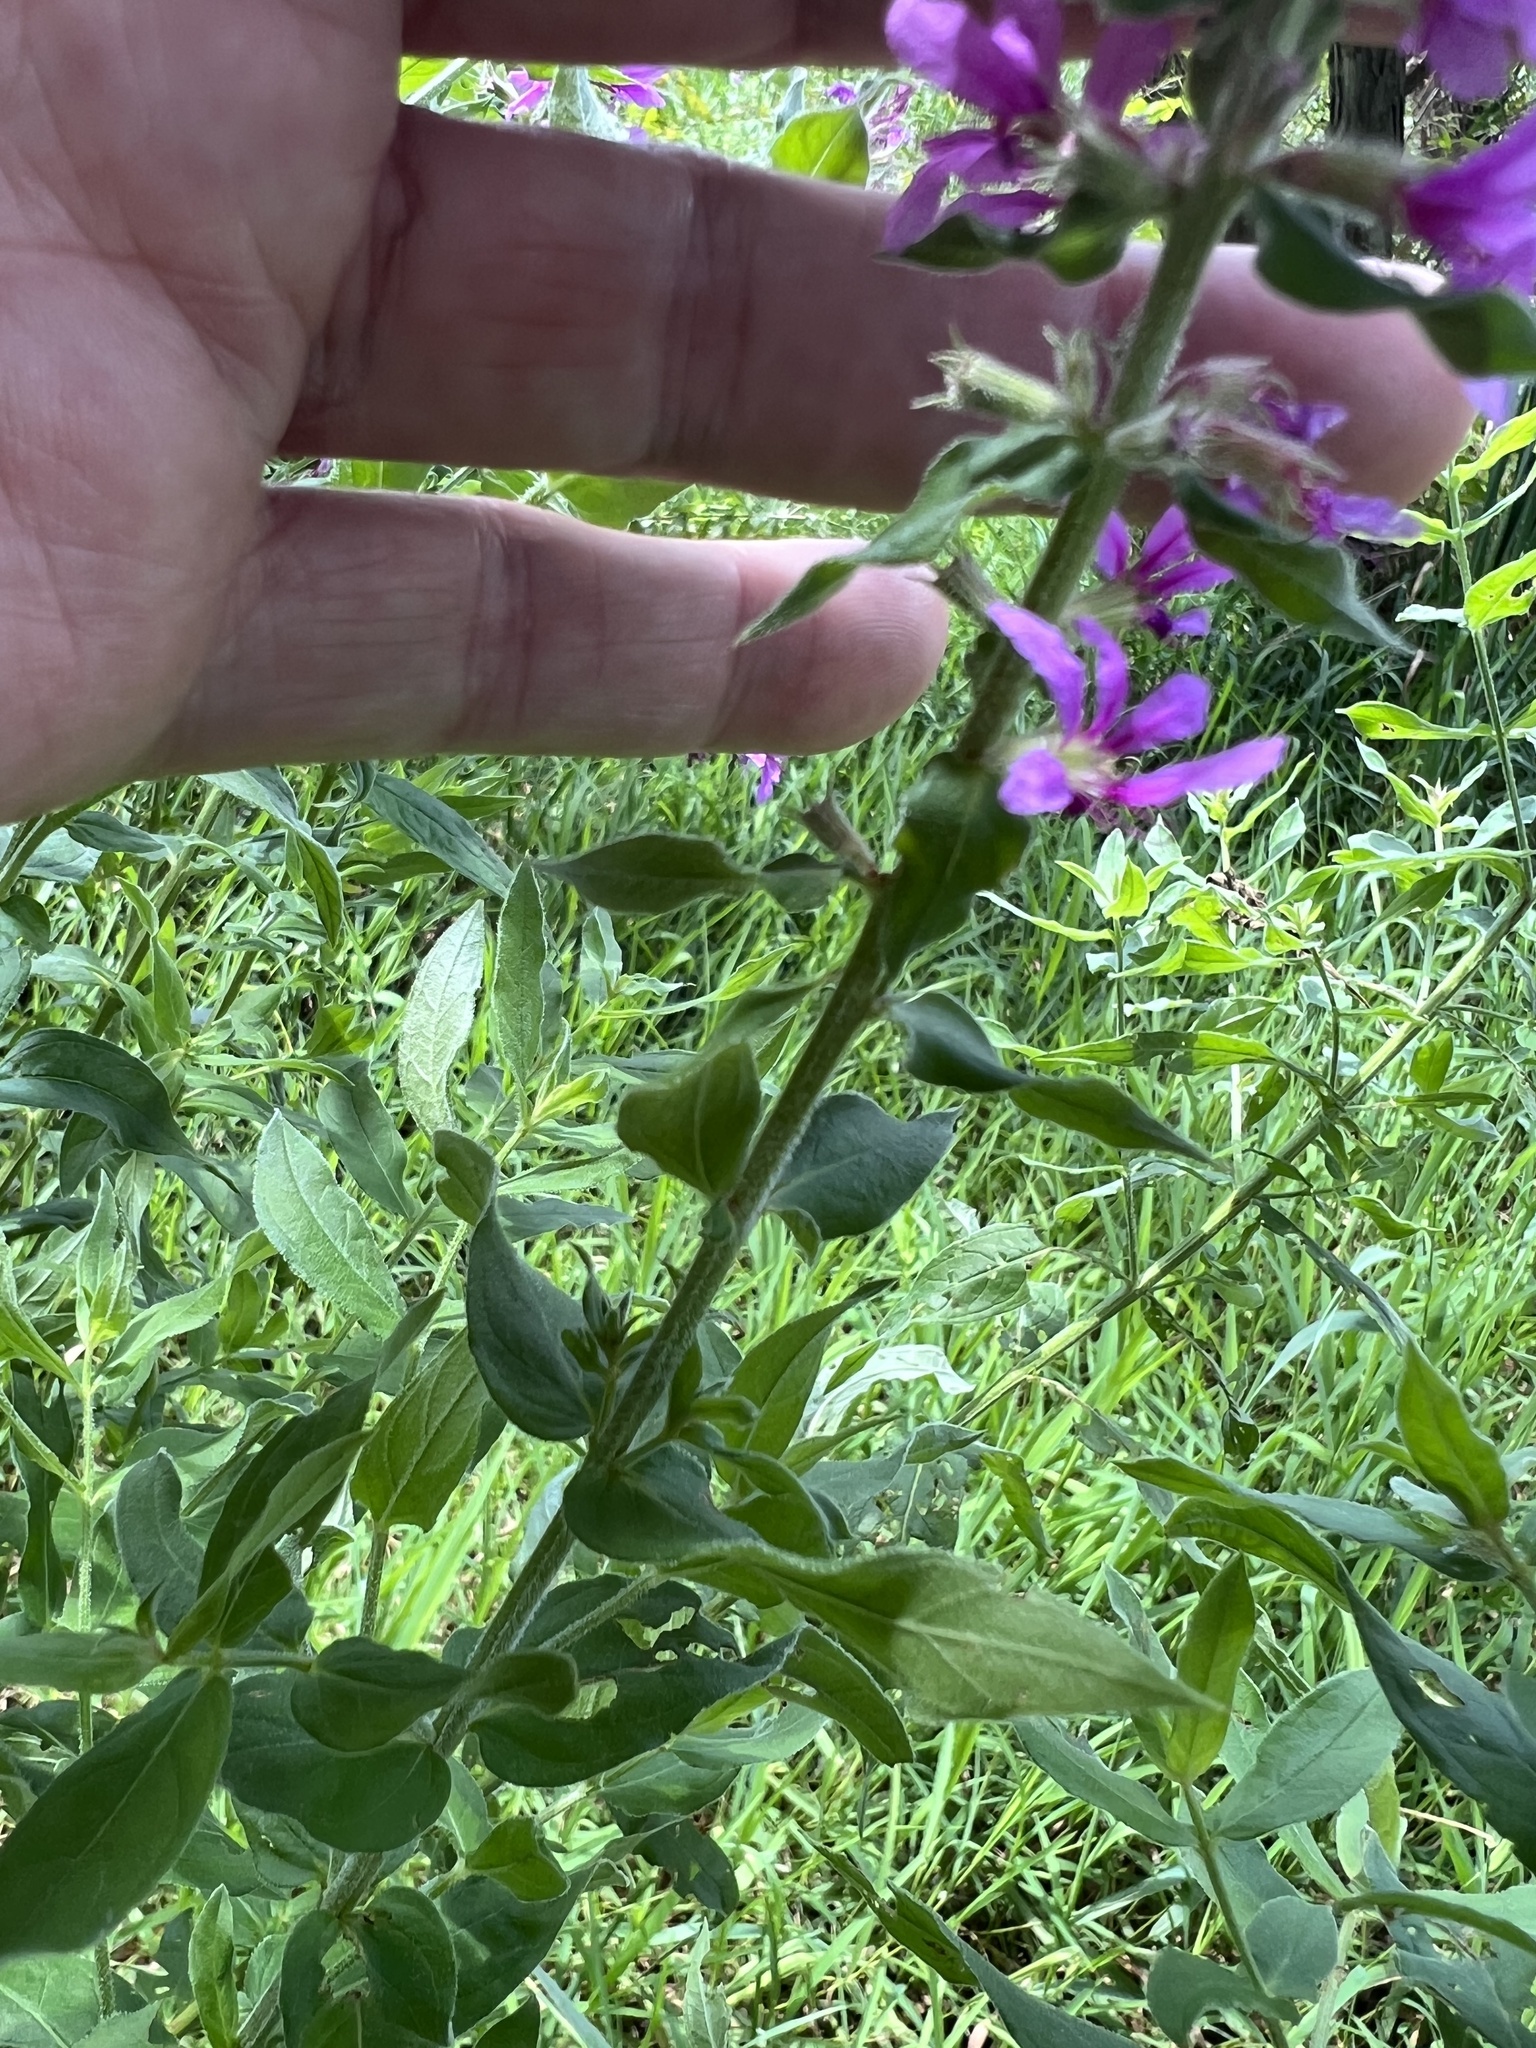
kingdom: Plantae
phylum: Tracheophyta
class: Magnoliopsida
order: Myrtales
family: Lythraceae
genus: Lythrum
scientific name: Lythrum salicaria
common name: Purple loosestrife
